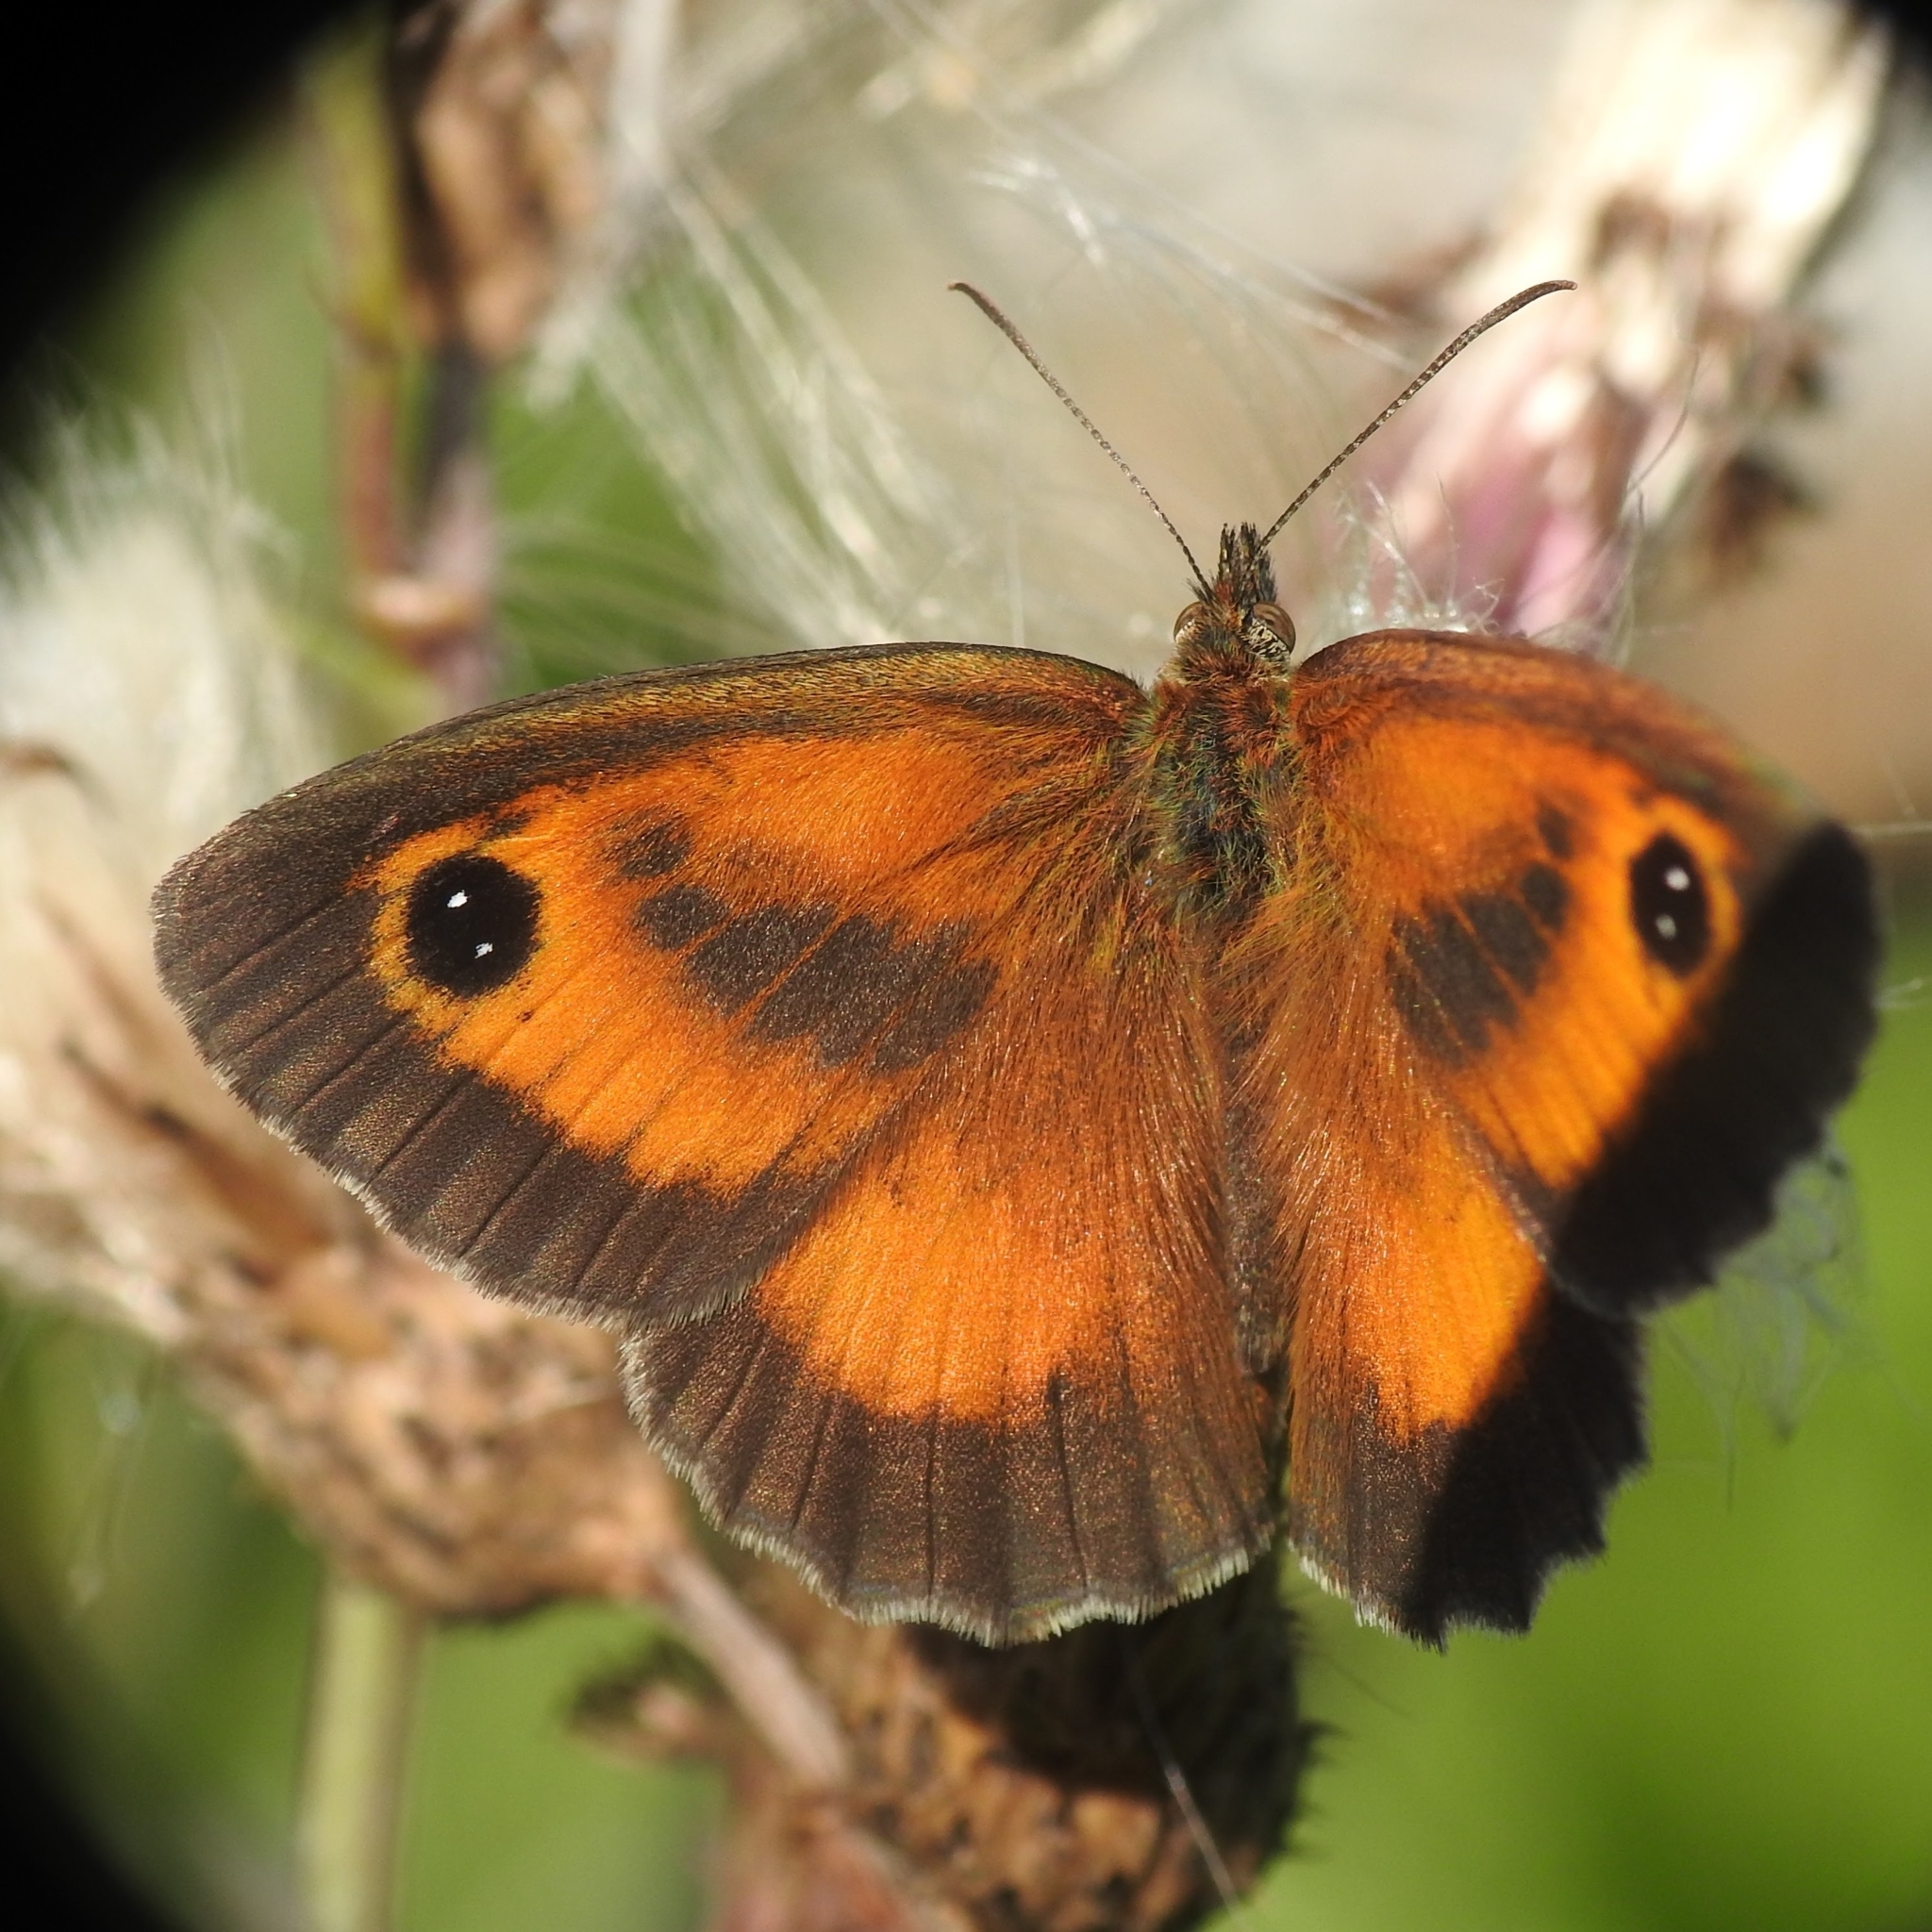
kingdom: Animalia
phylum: Arthropoda
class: Insecta
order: Lepidoptera
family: Nymphalidae
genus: Pyronia
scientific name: Pyronia tithonus
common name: Gatekeeper
